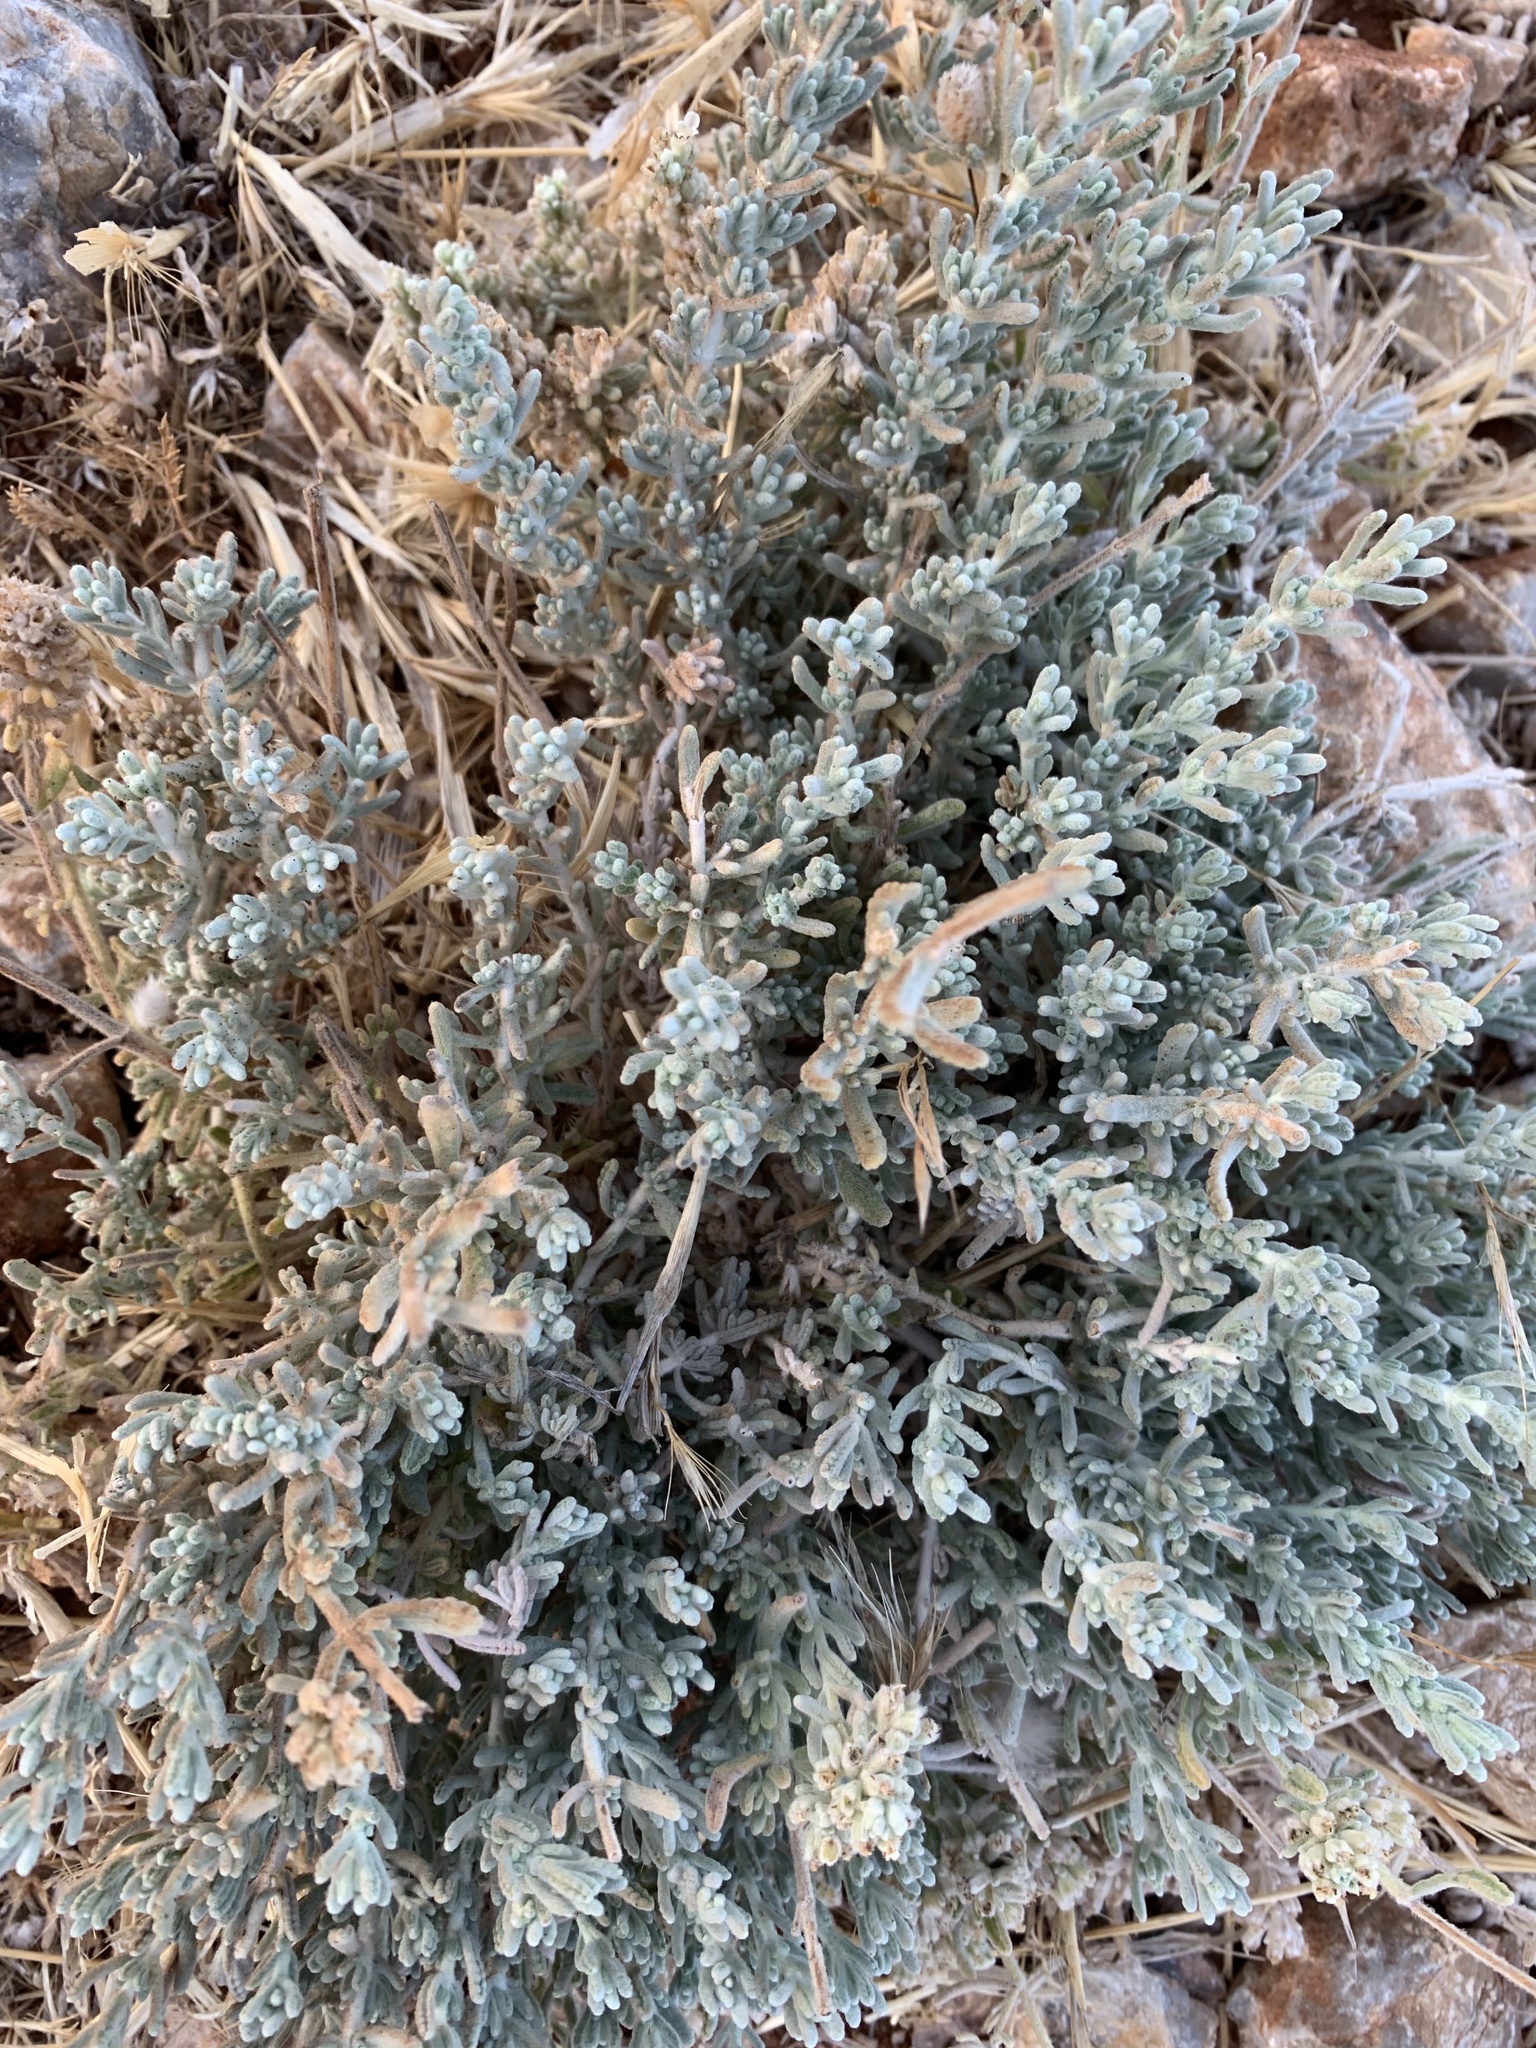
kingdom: Plantae
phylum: Tracheophyta
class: Magnoliopsida
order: Lamiales
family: Lamiaceae
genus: Teucrium
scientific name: Teucrium capitatum
